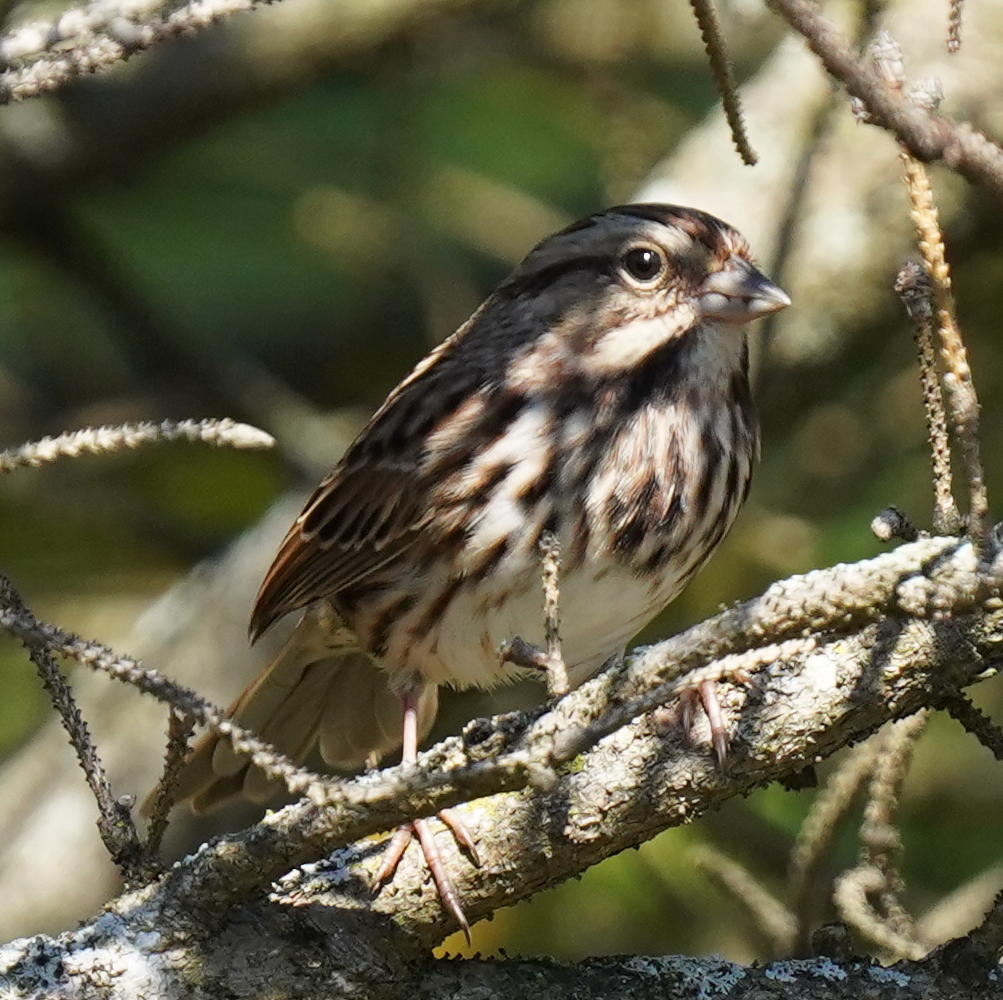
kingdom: Animalia
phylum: Chordata
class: Aves
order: Passeriformes
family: Passerellidae
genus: Melospiza
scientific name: Melospiza melodia
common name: Song sparrow
